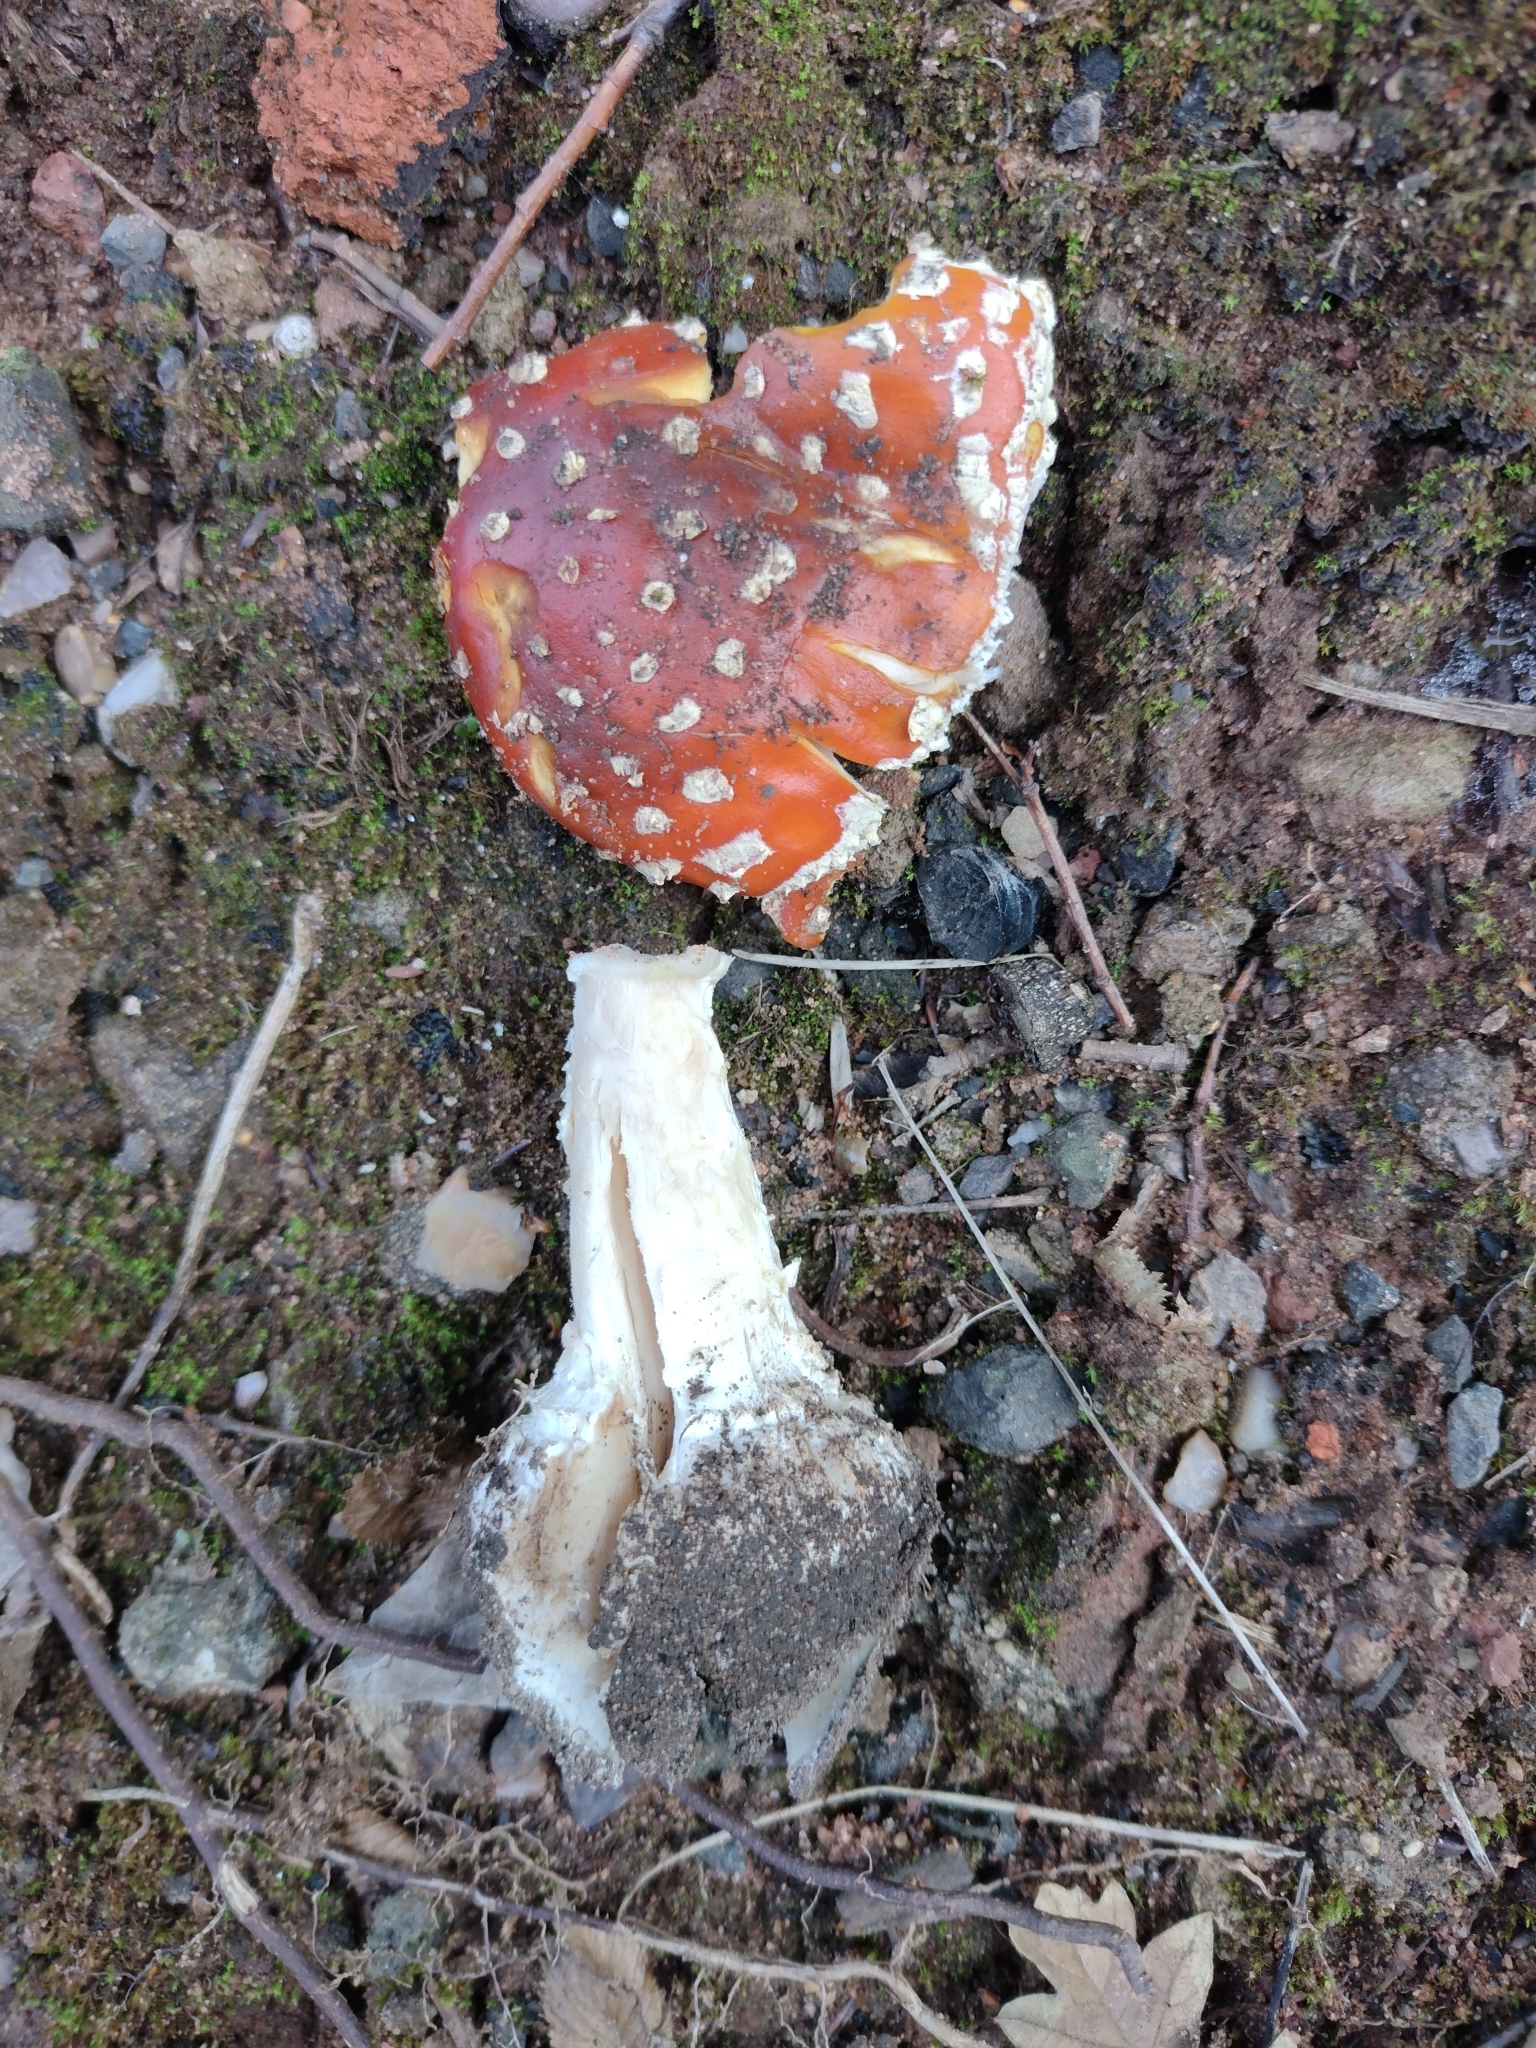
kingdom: Fungi
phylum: Basidiomycota
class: Agaricomycetes
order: Agaricales
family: Amanitaceae
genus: Amanita
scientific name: Amanita muscaria
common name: Fly agaric
